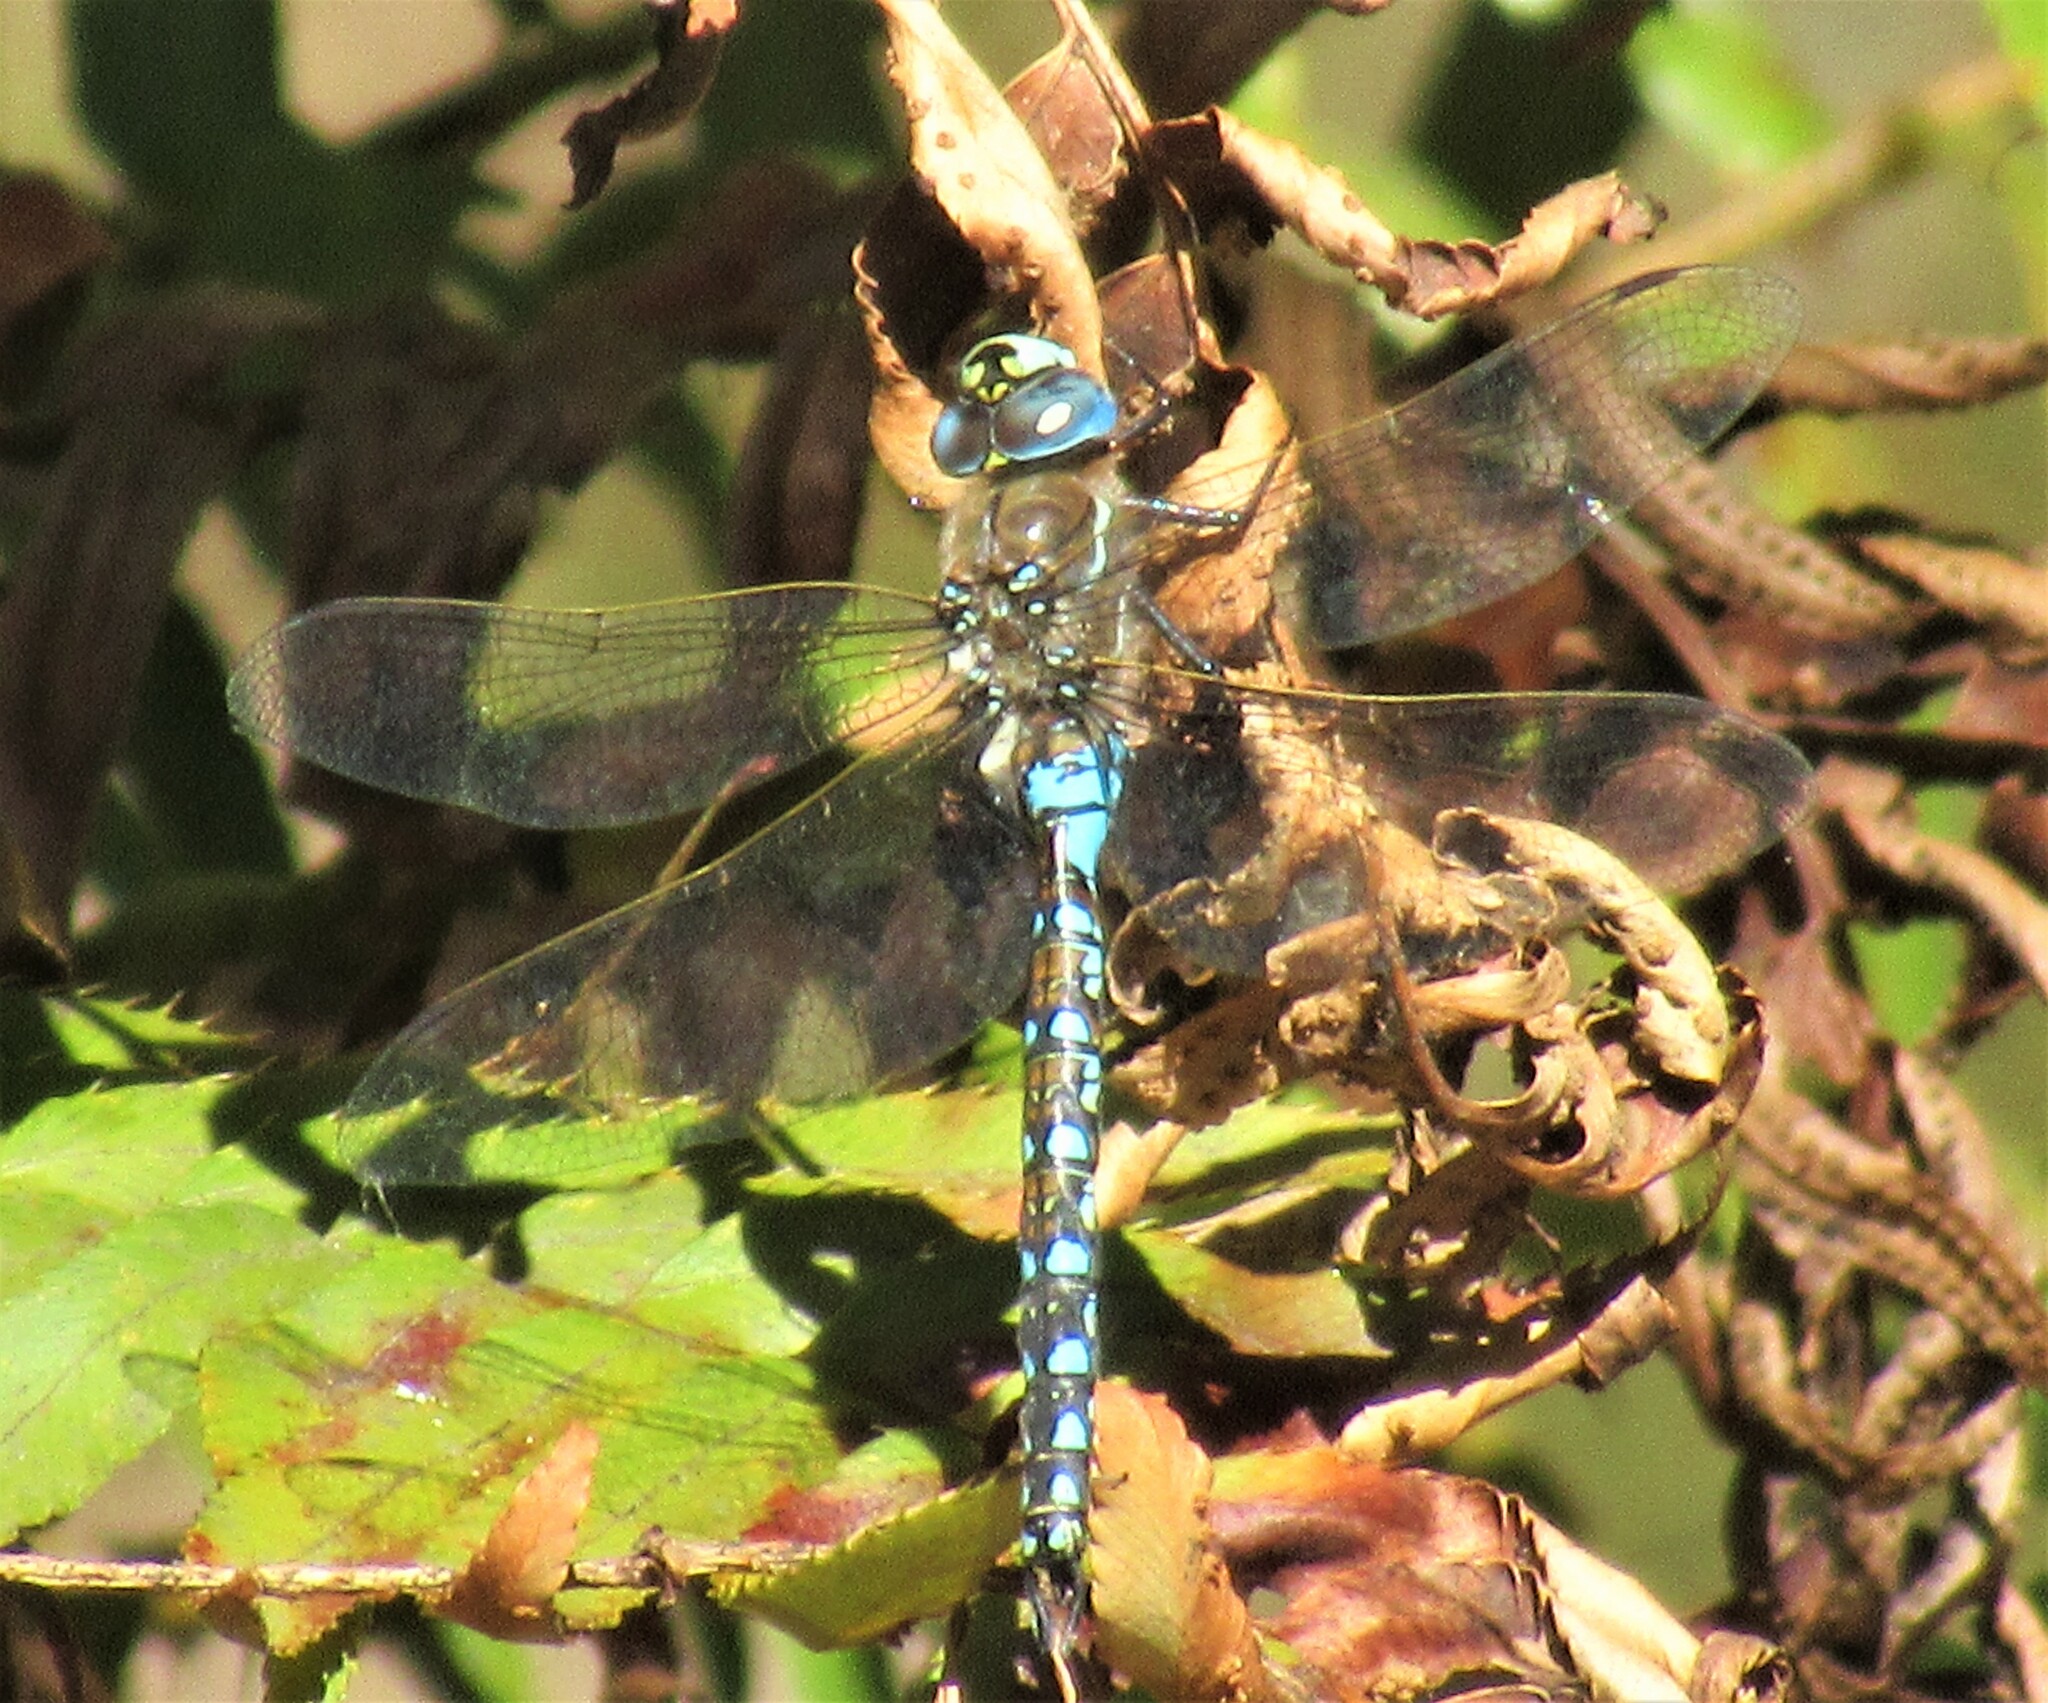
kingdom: Animalia
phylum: Arthropoda
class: Insecta
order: Odonata
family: Aeshnidae
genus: Rhionaeschna
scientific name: Rhionaeschna californica
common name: California darner
